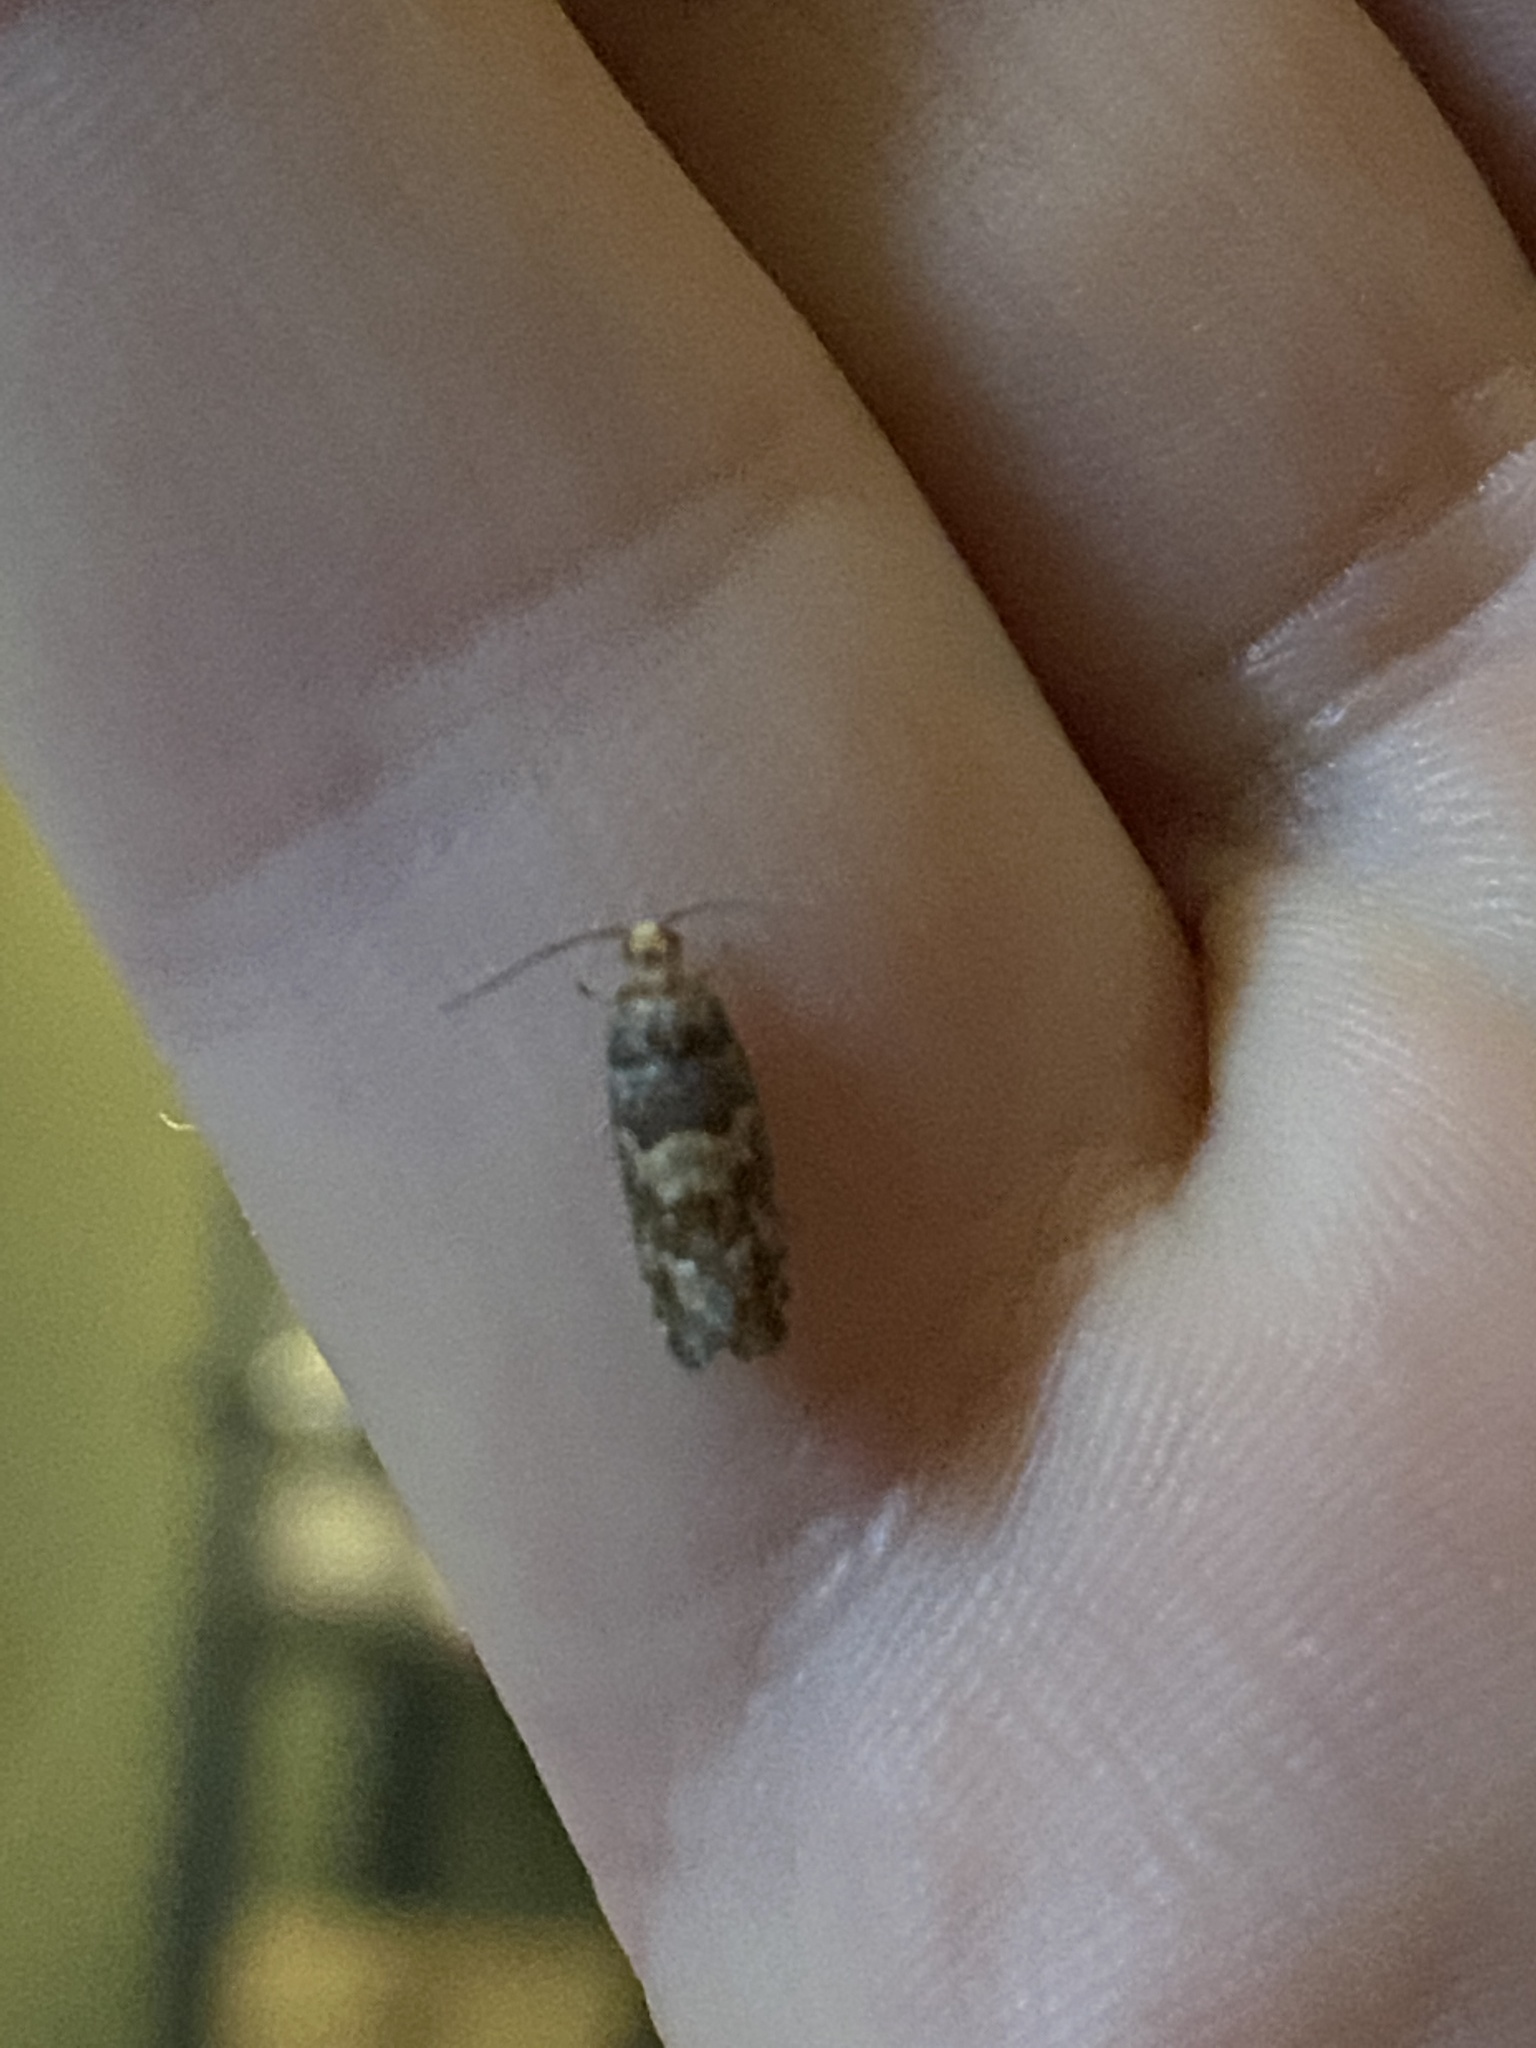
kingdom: Animalia
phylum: Arthropoda
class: Insecta
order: Lepidoptera
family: Tortricidae
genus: Eucopina
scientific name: Eucopina tocullionana
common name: White pinecone borer moth
